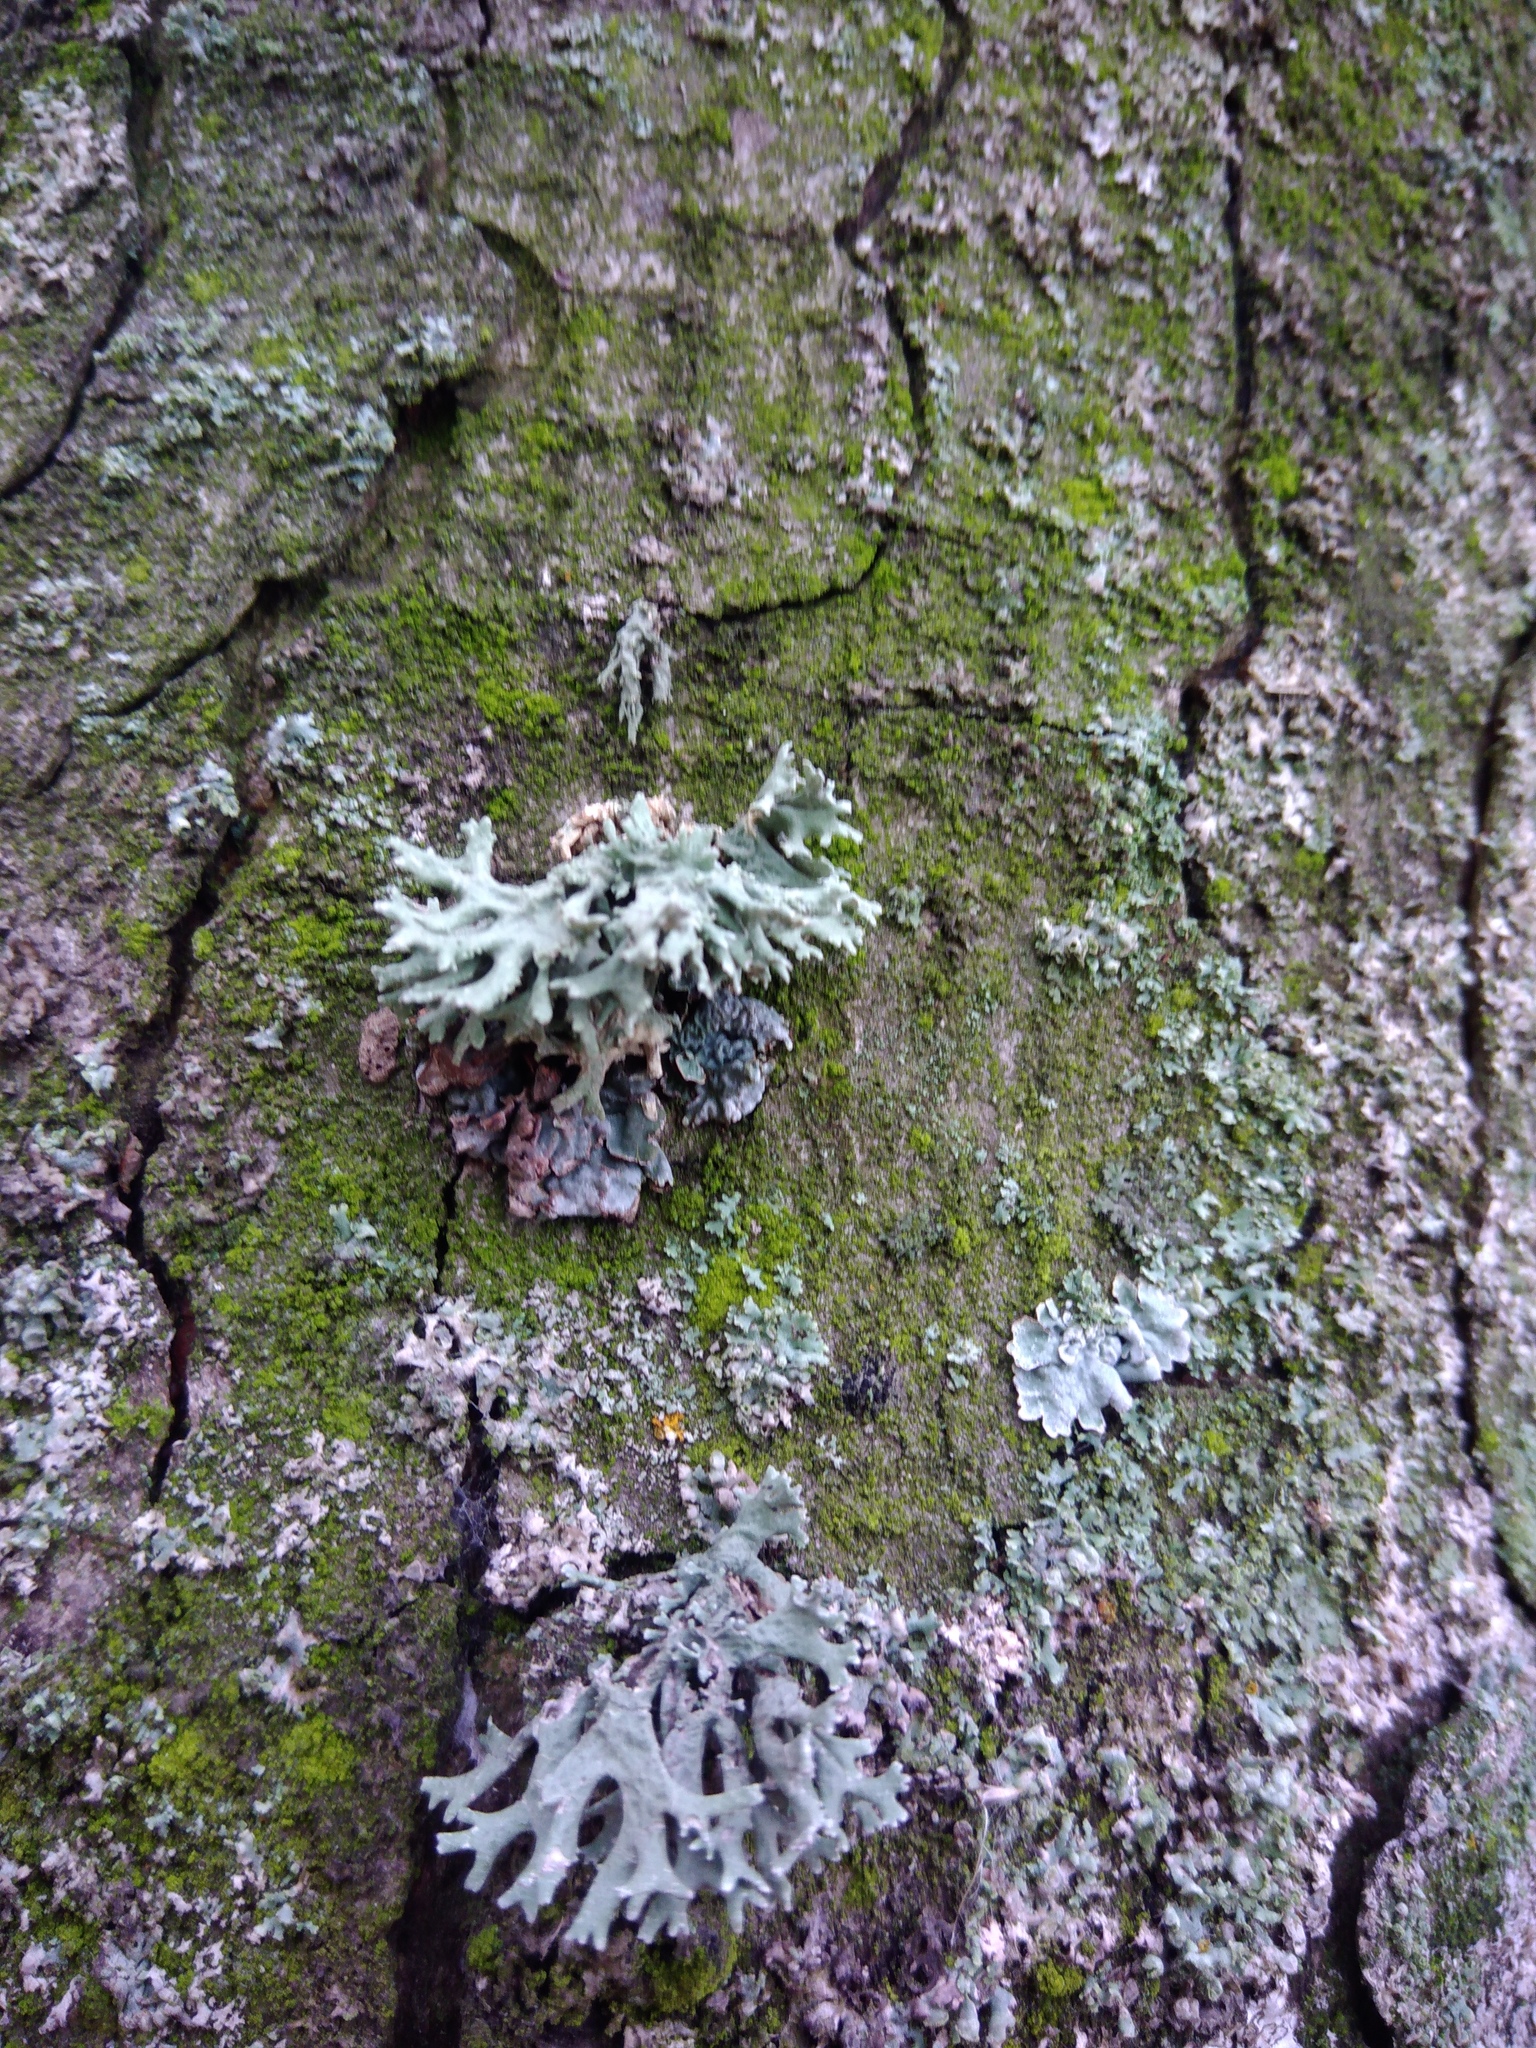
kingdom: Fungi
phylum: Ascomycota
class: Lecanoromycetes
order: Lecanorales
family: Parmeliaceae
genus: Evernia
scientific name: Evernia prunastri
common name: Oak moss
